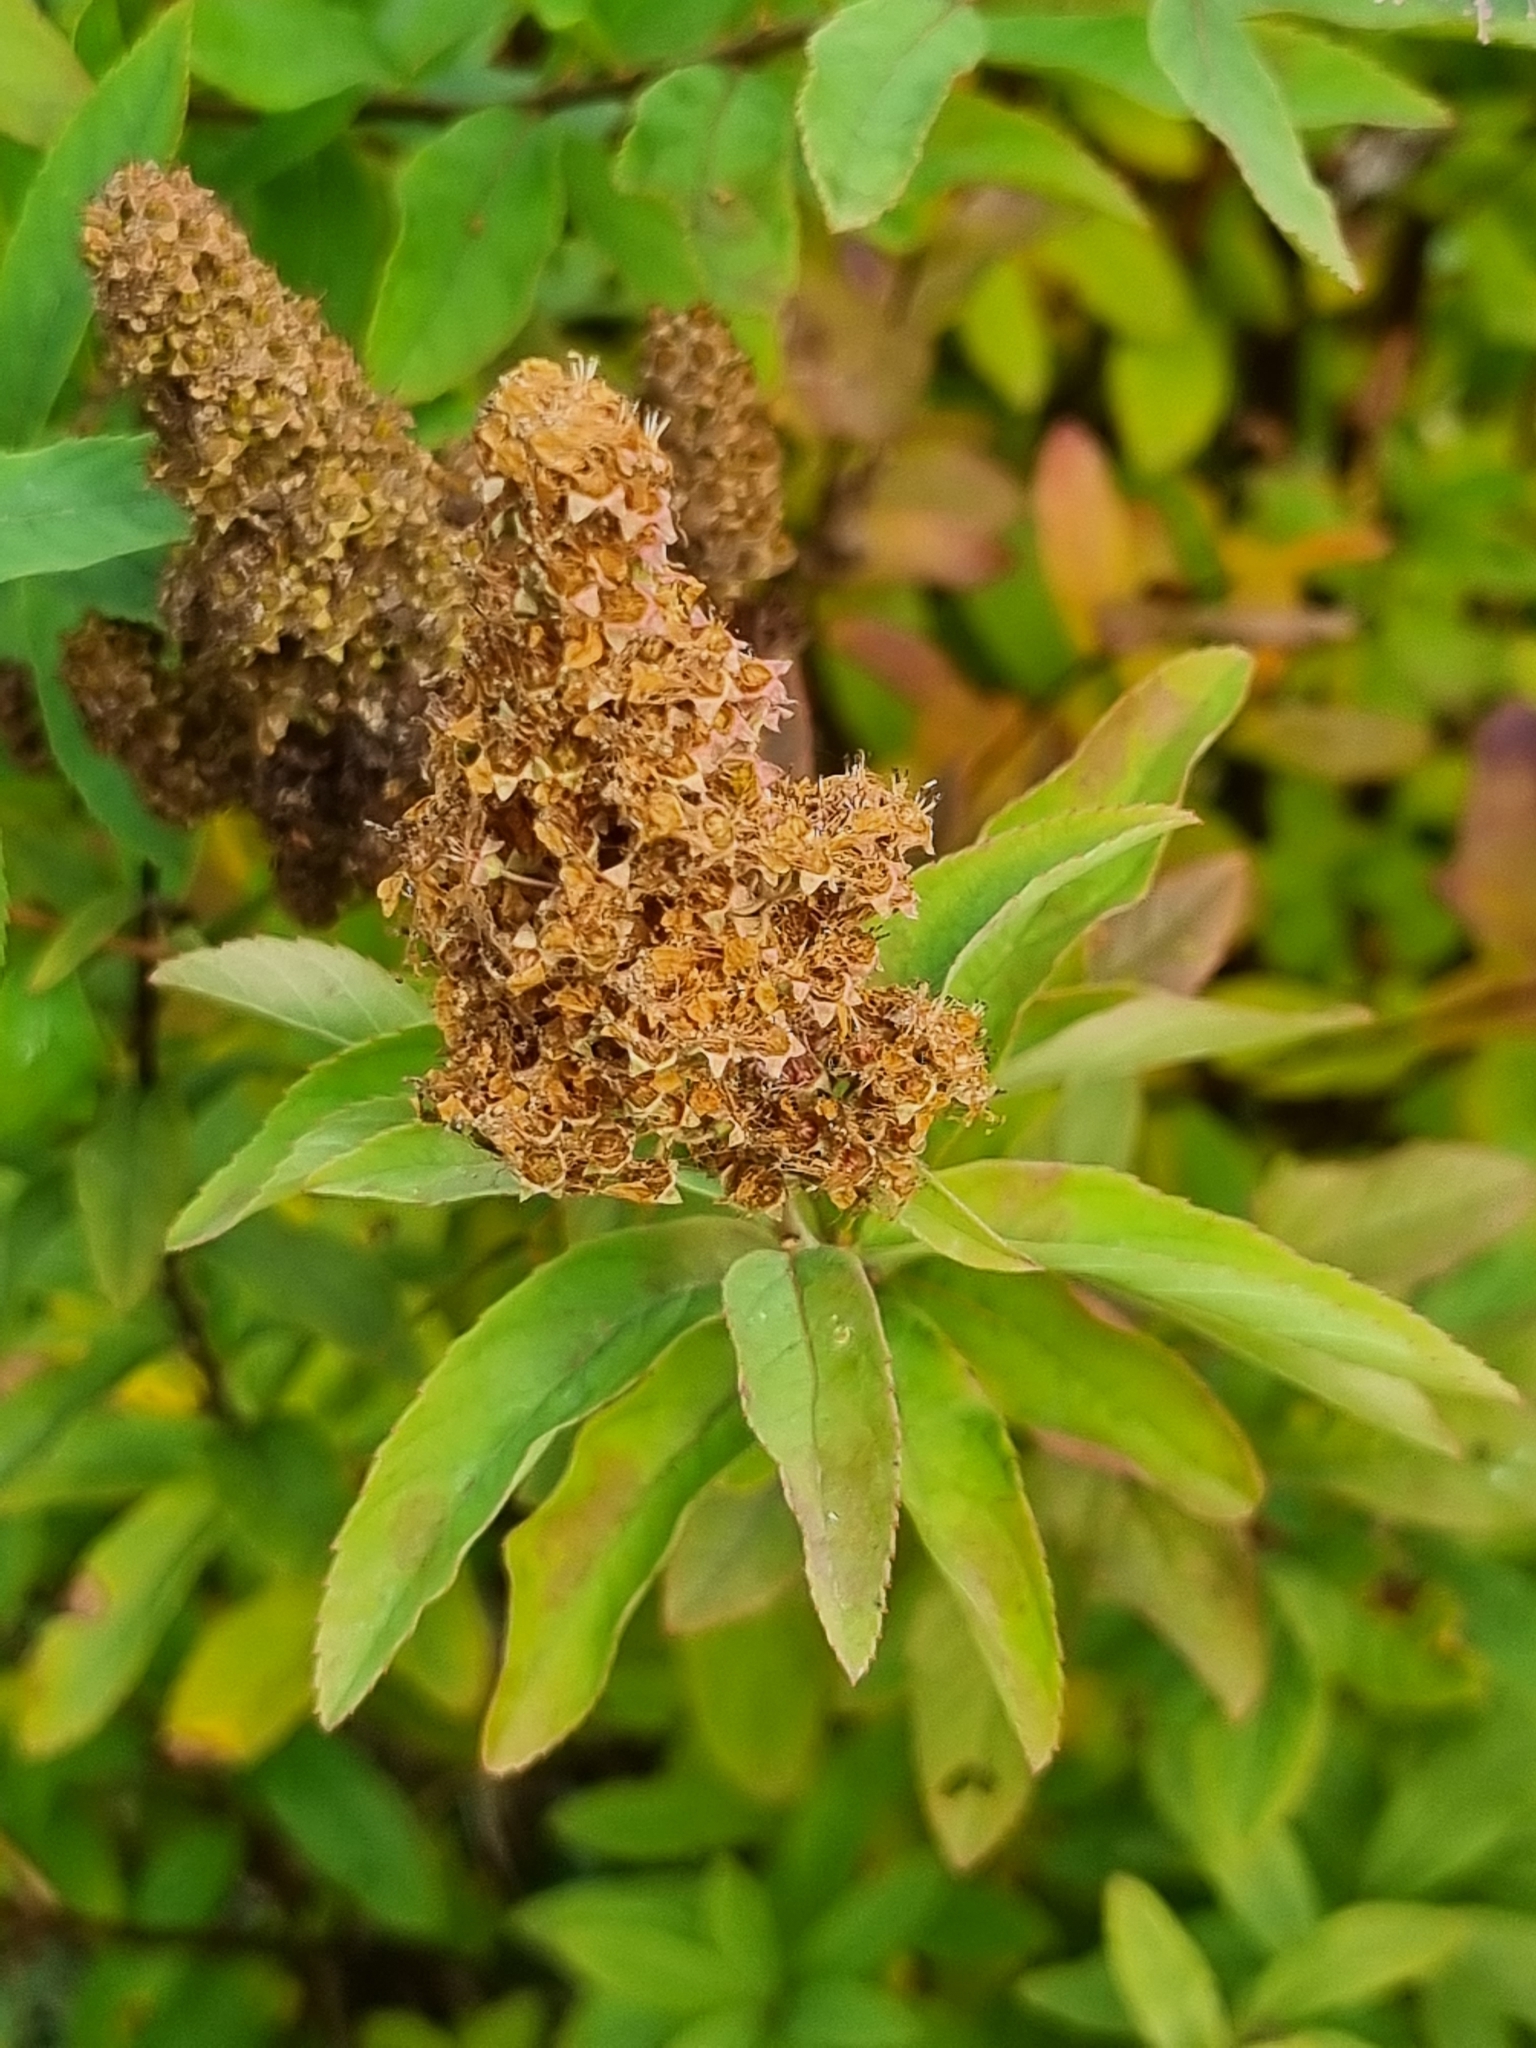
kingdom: Plantae
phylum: Tracheophyta
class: Magnoliopsida
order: Rosales
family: Rosaceae
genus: Spiraea
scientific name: Spiraea salicifolia
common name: Bridewort
